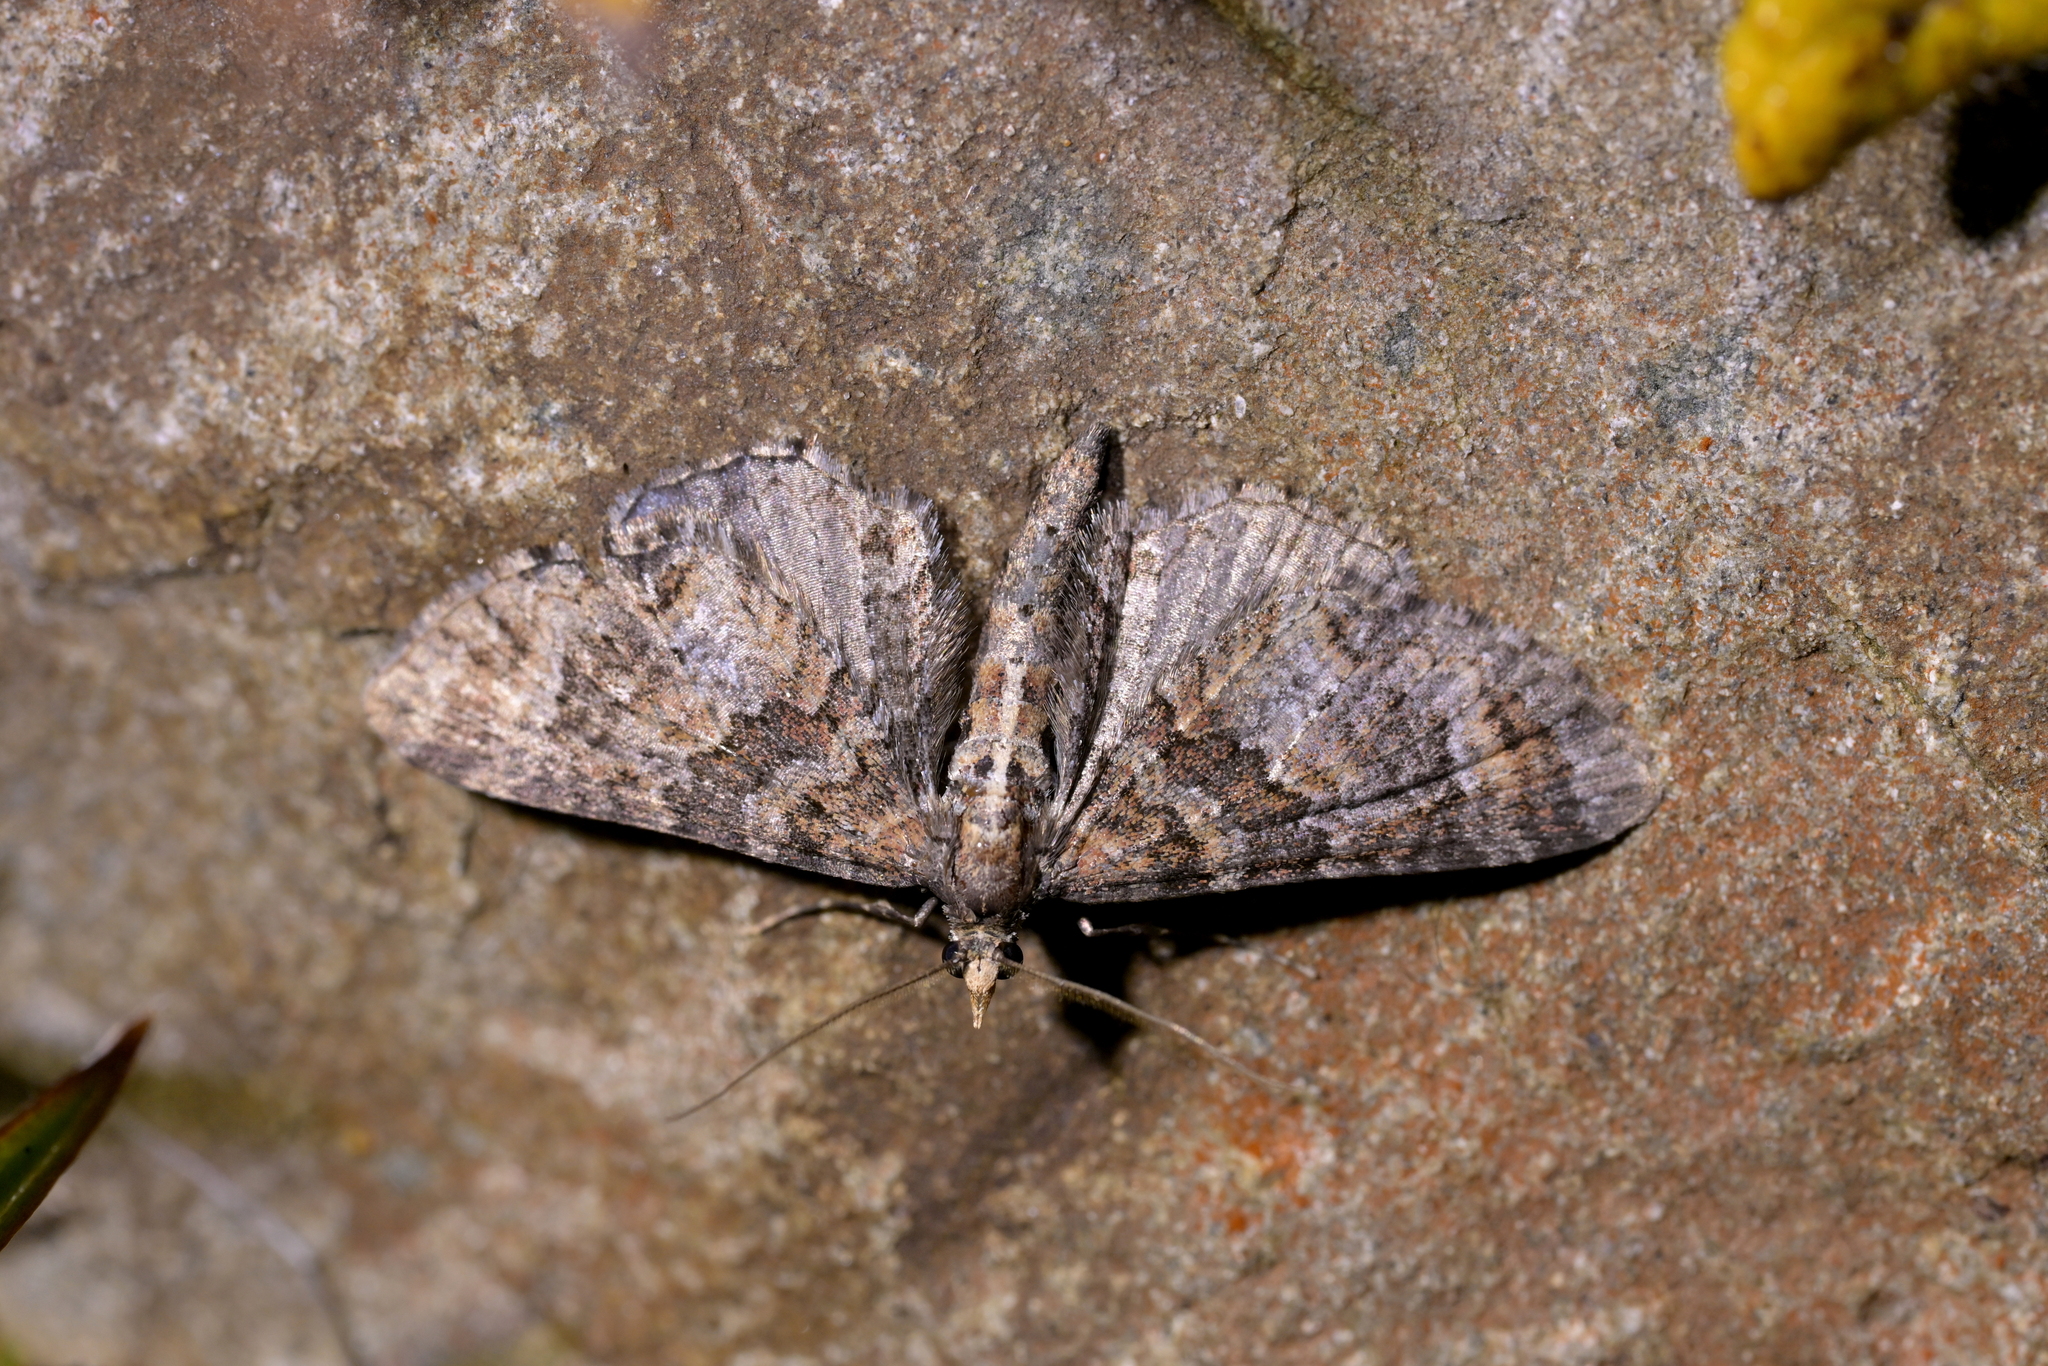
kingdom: Animalia
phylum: Arthropoda
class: Insecta
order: Lepidoptera
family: Geometridae
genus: Pasiphila
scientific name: Pasiphila halianthes
